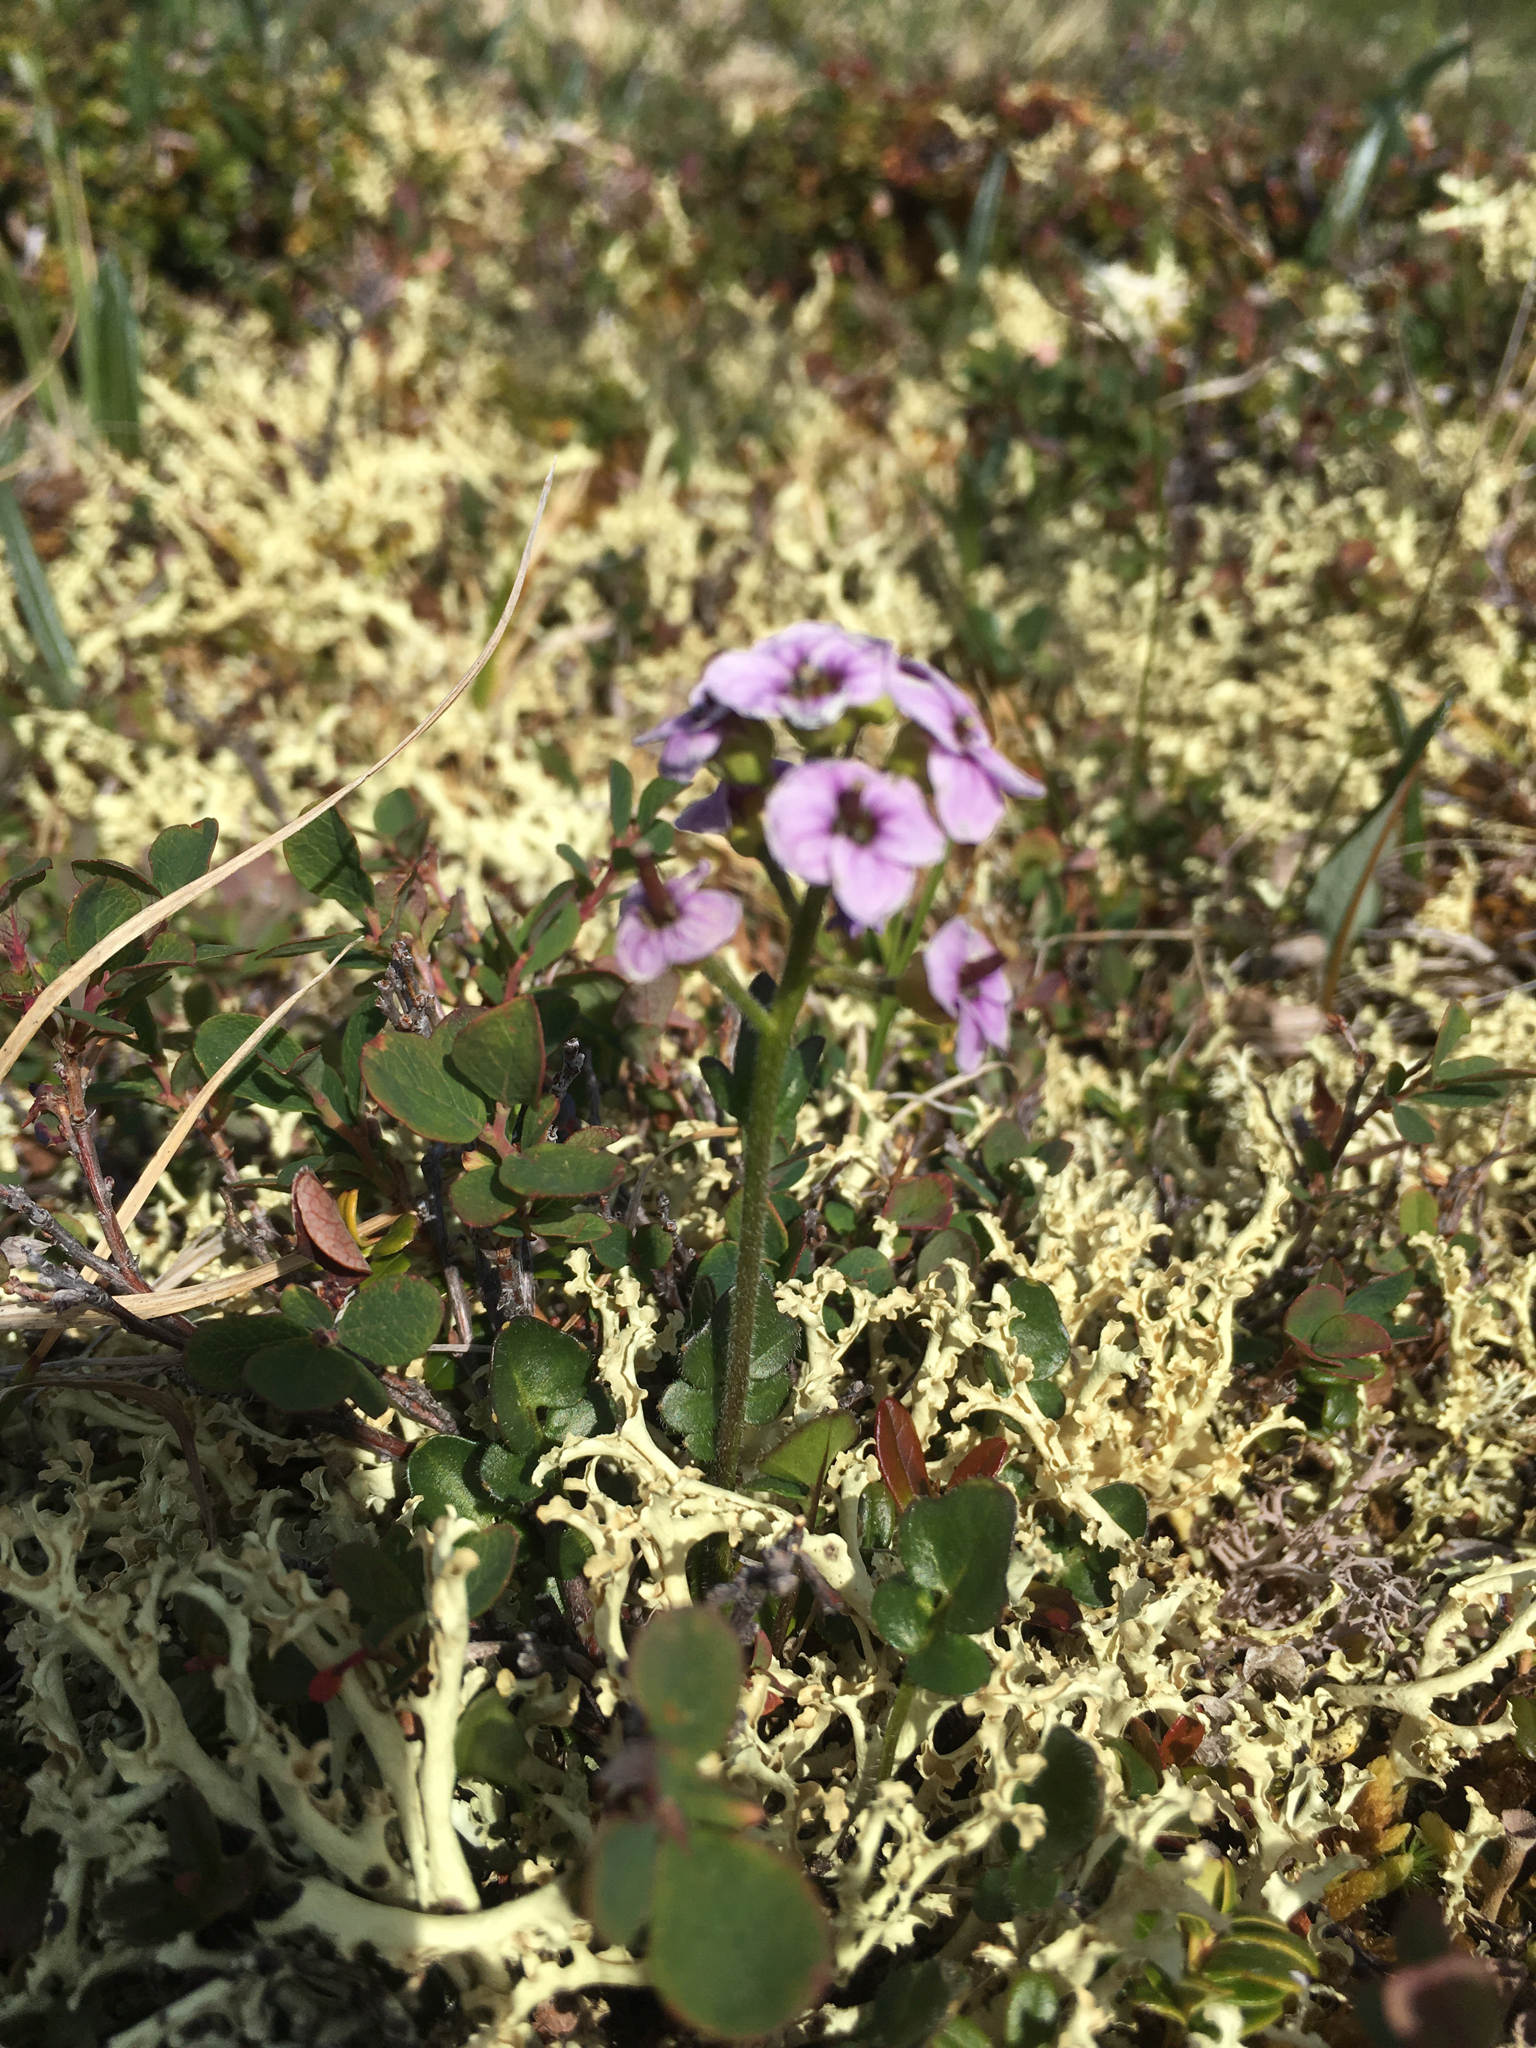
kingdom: Plantae
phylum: Tracheophyta
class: Magnoliopsida
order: Brassicales
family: Brassicaceae
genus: Cardamine
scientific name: Cardamine purpurea
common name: Purple bittercress
